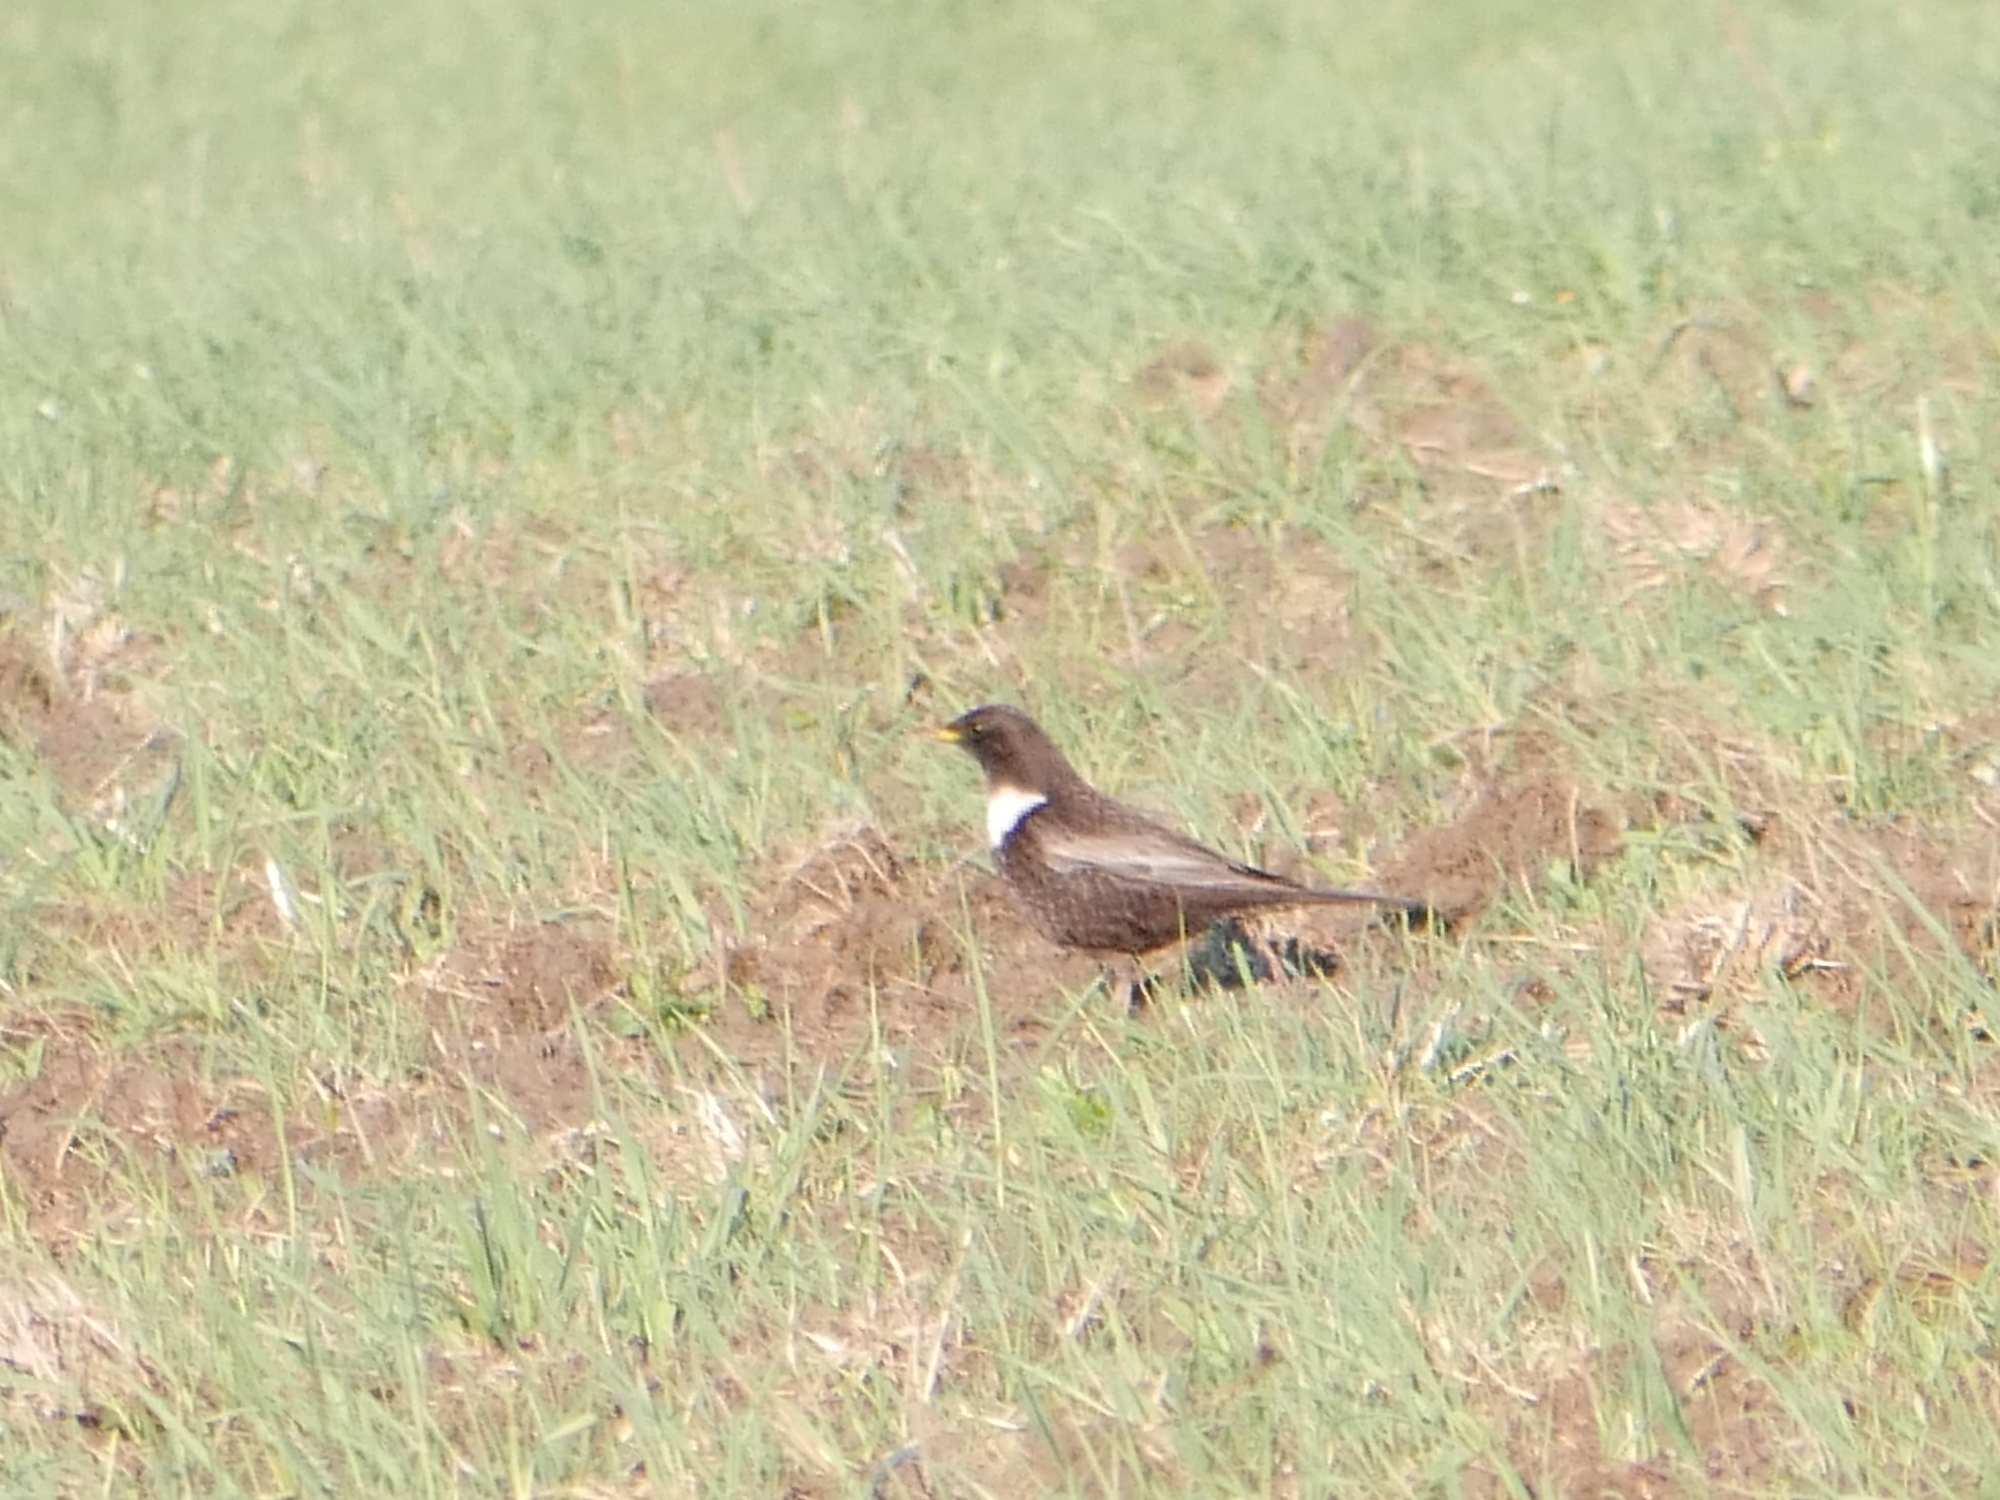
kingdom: Animalia
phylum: Chordata
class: Aves
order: Passeriformes
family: Turdidae
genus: Turdus
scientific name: Turdus torquatus
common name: Ring ouzel
